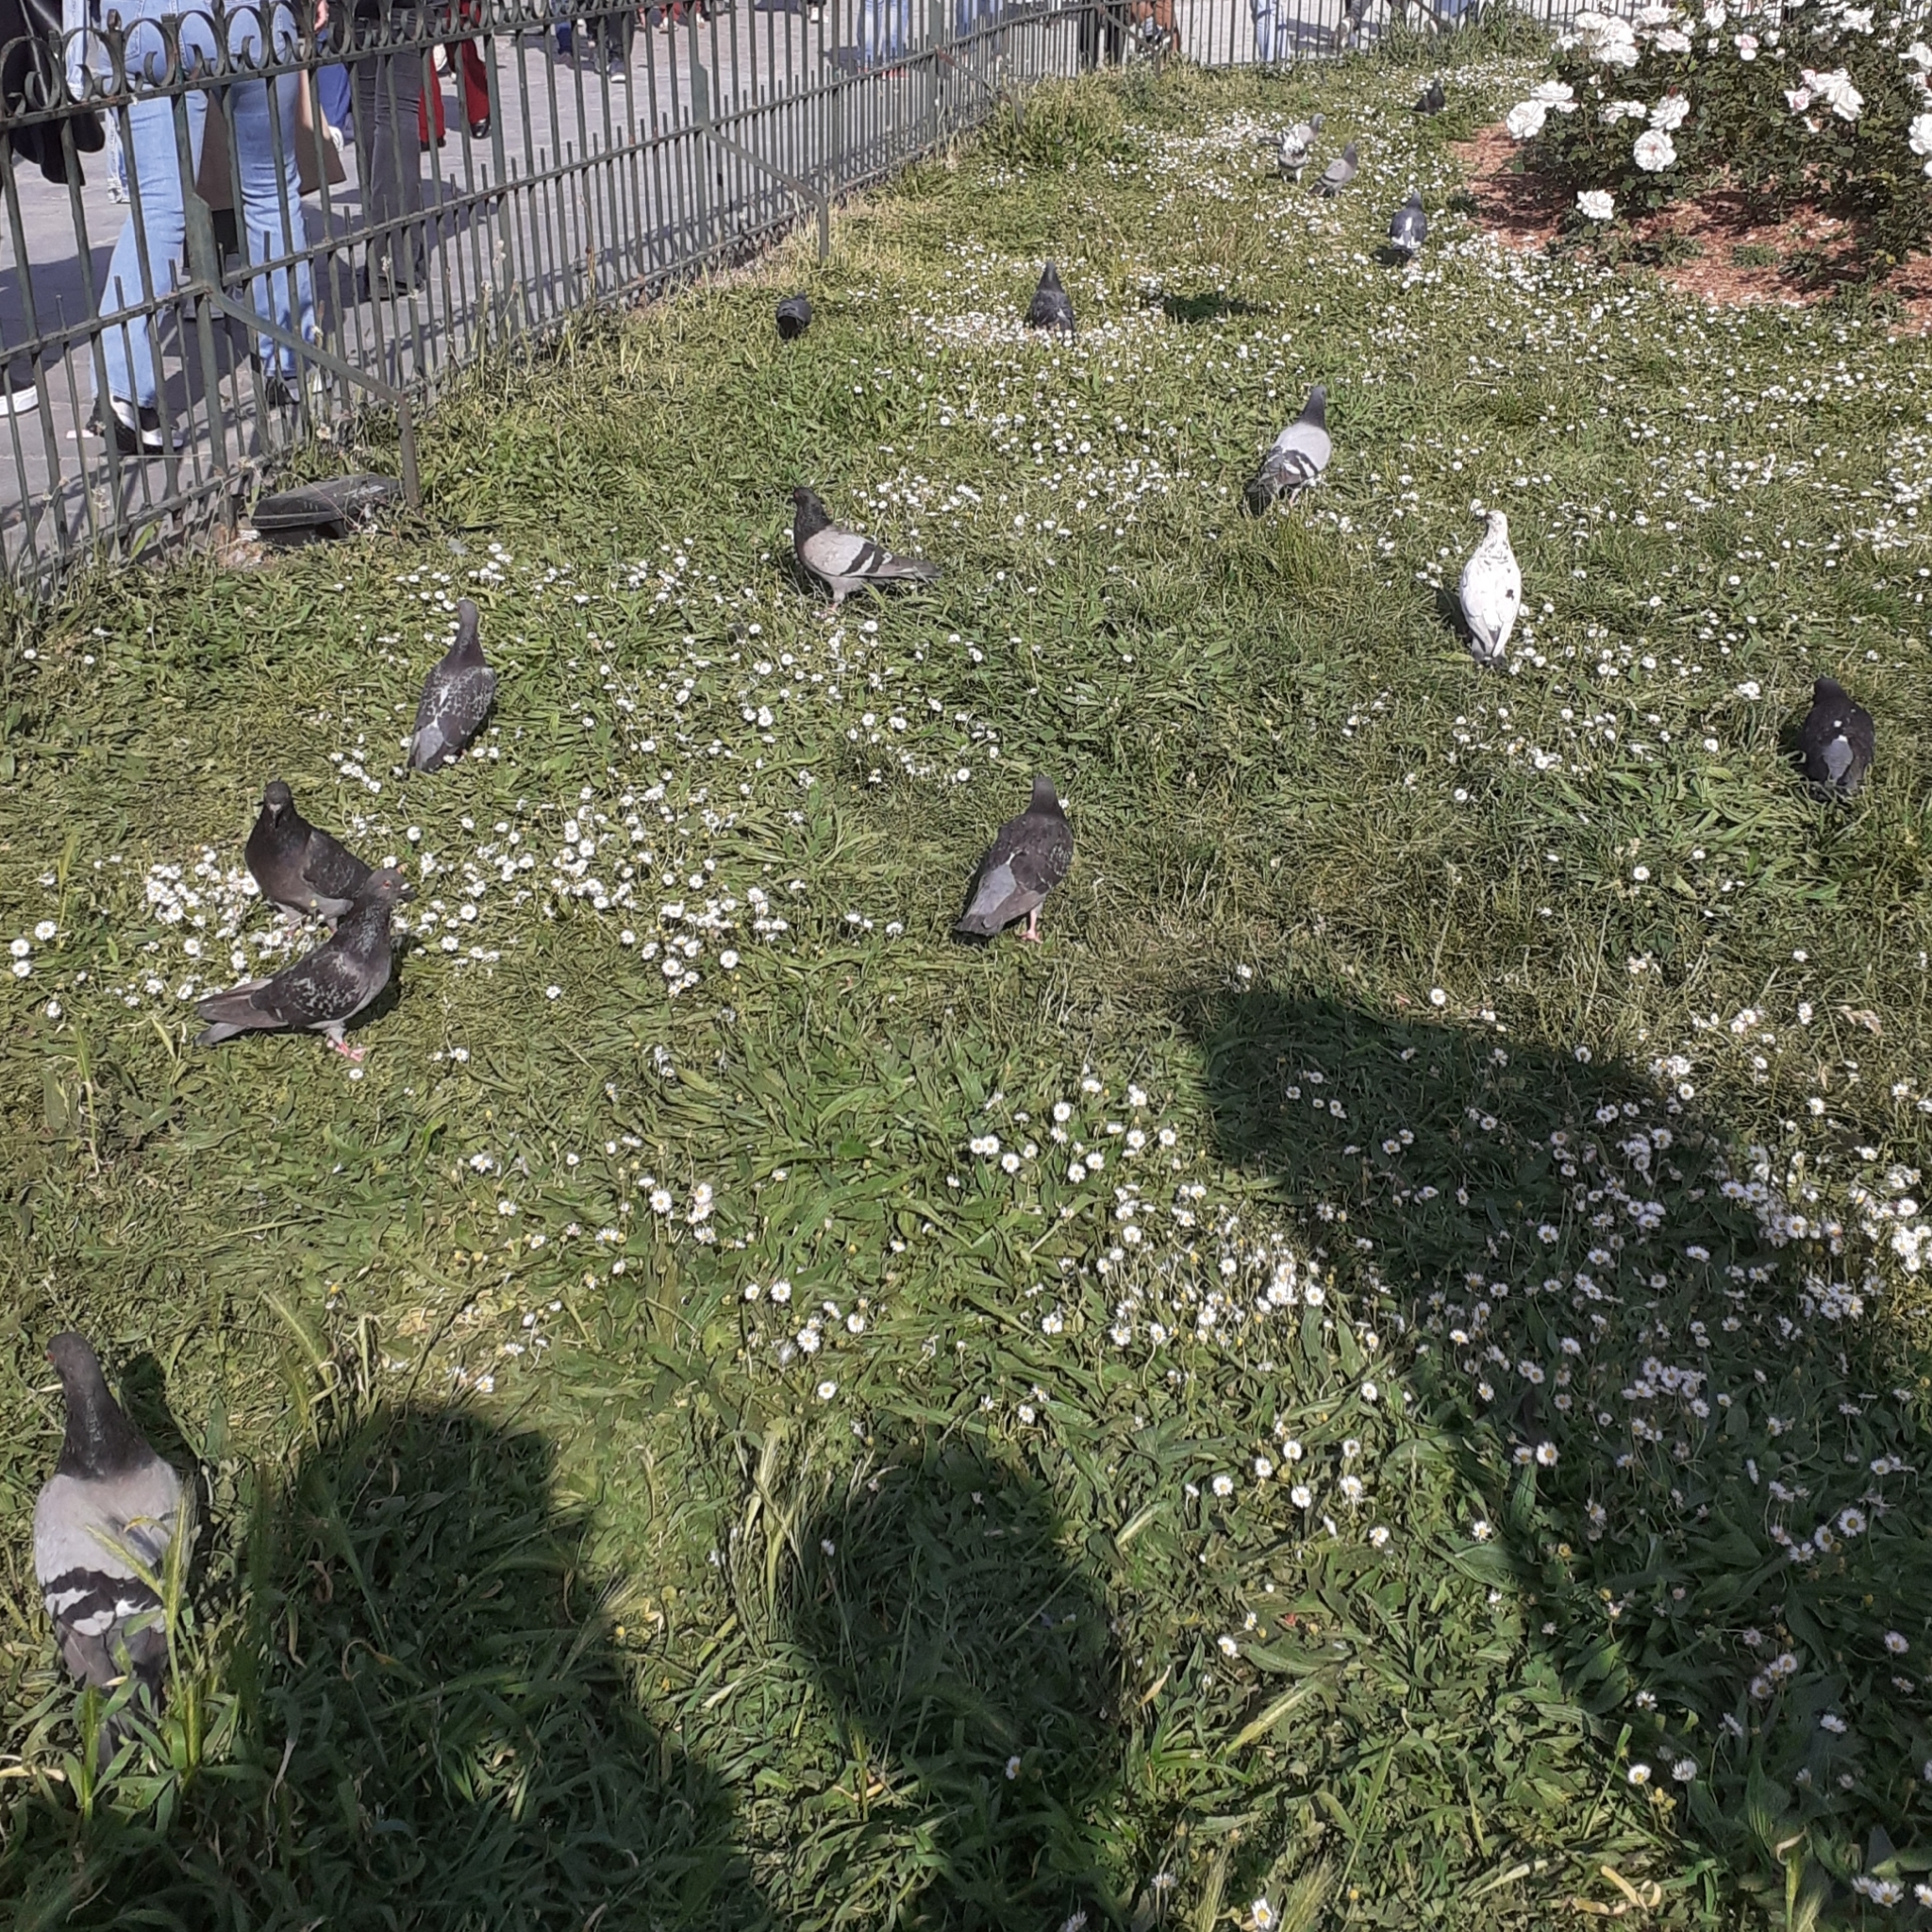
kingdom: Animalia
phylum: Chordata
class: Aves
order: Columbiformes
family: Columbidae
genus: Columba
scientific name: Columba livia
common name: Rock pigeon
